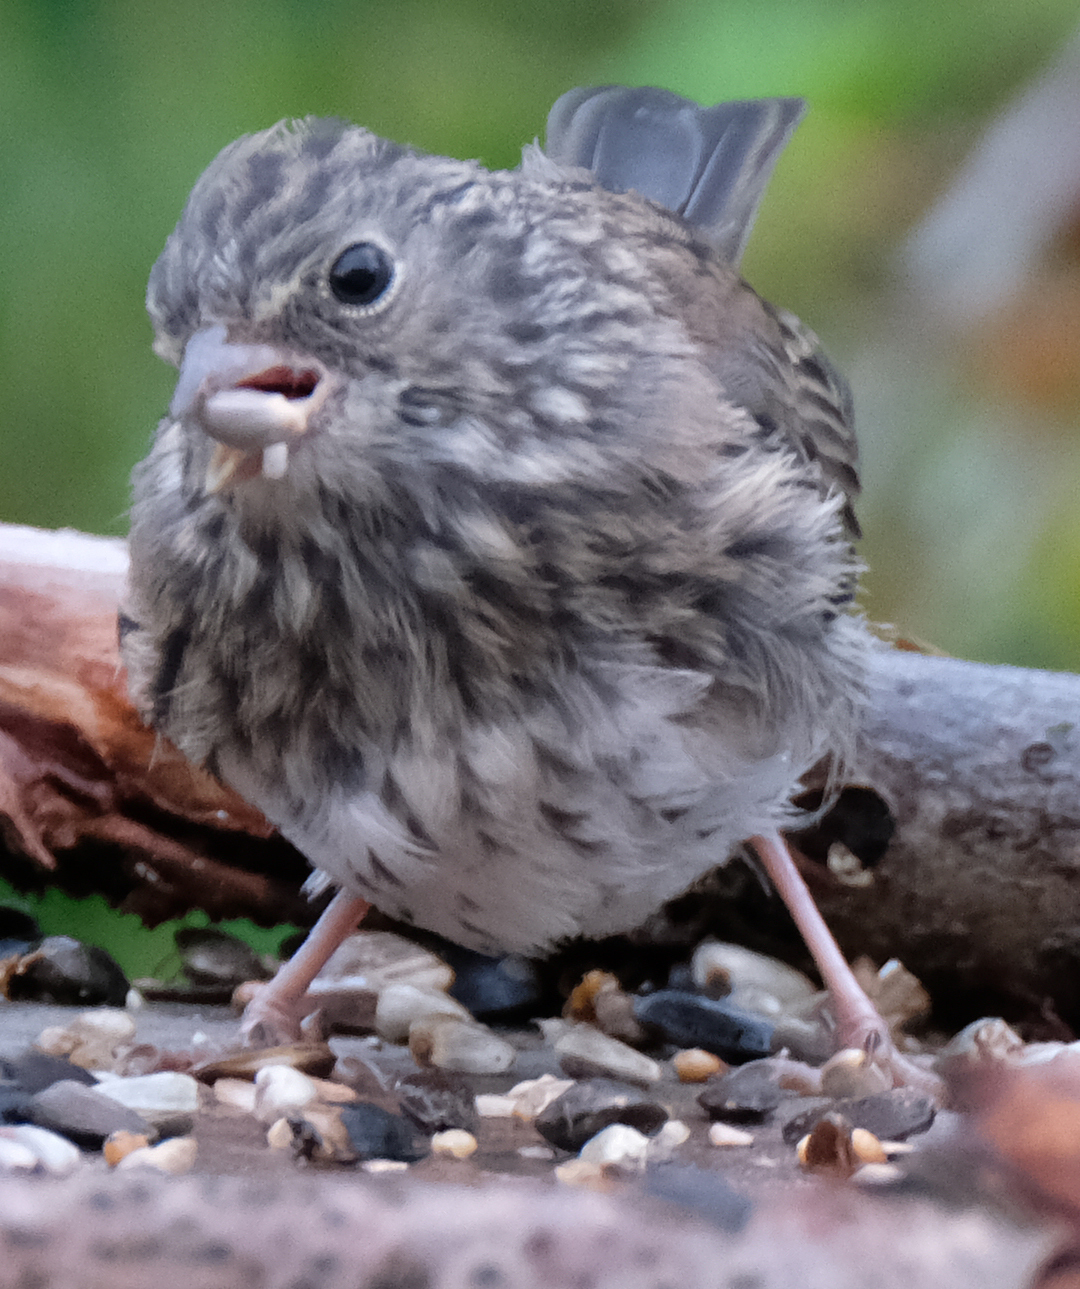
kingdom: Animalia
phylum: Chordata
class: Aves
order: Passeriformes
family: Passerellidae
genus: Junco
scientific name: Junco hyemalis
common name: Dark-eyed junco
